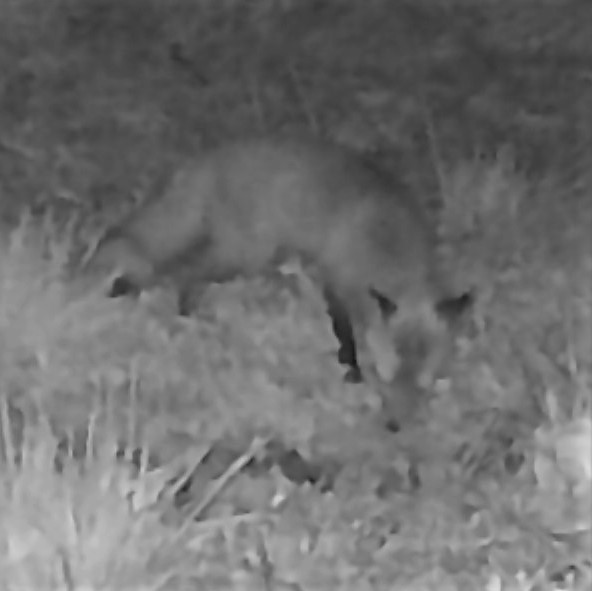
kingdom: Animalia
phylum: Chordata
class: Mammalia
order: Carnivora
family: Canidae
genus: Vulpes
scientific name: Vulpes vulpes
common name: Red fox
